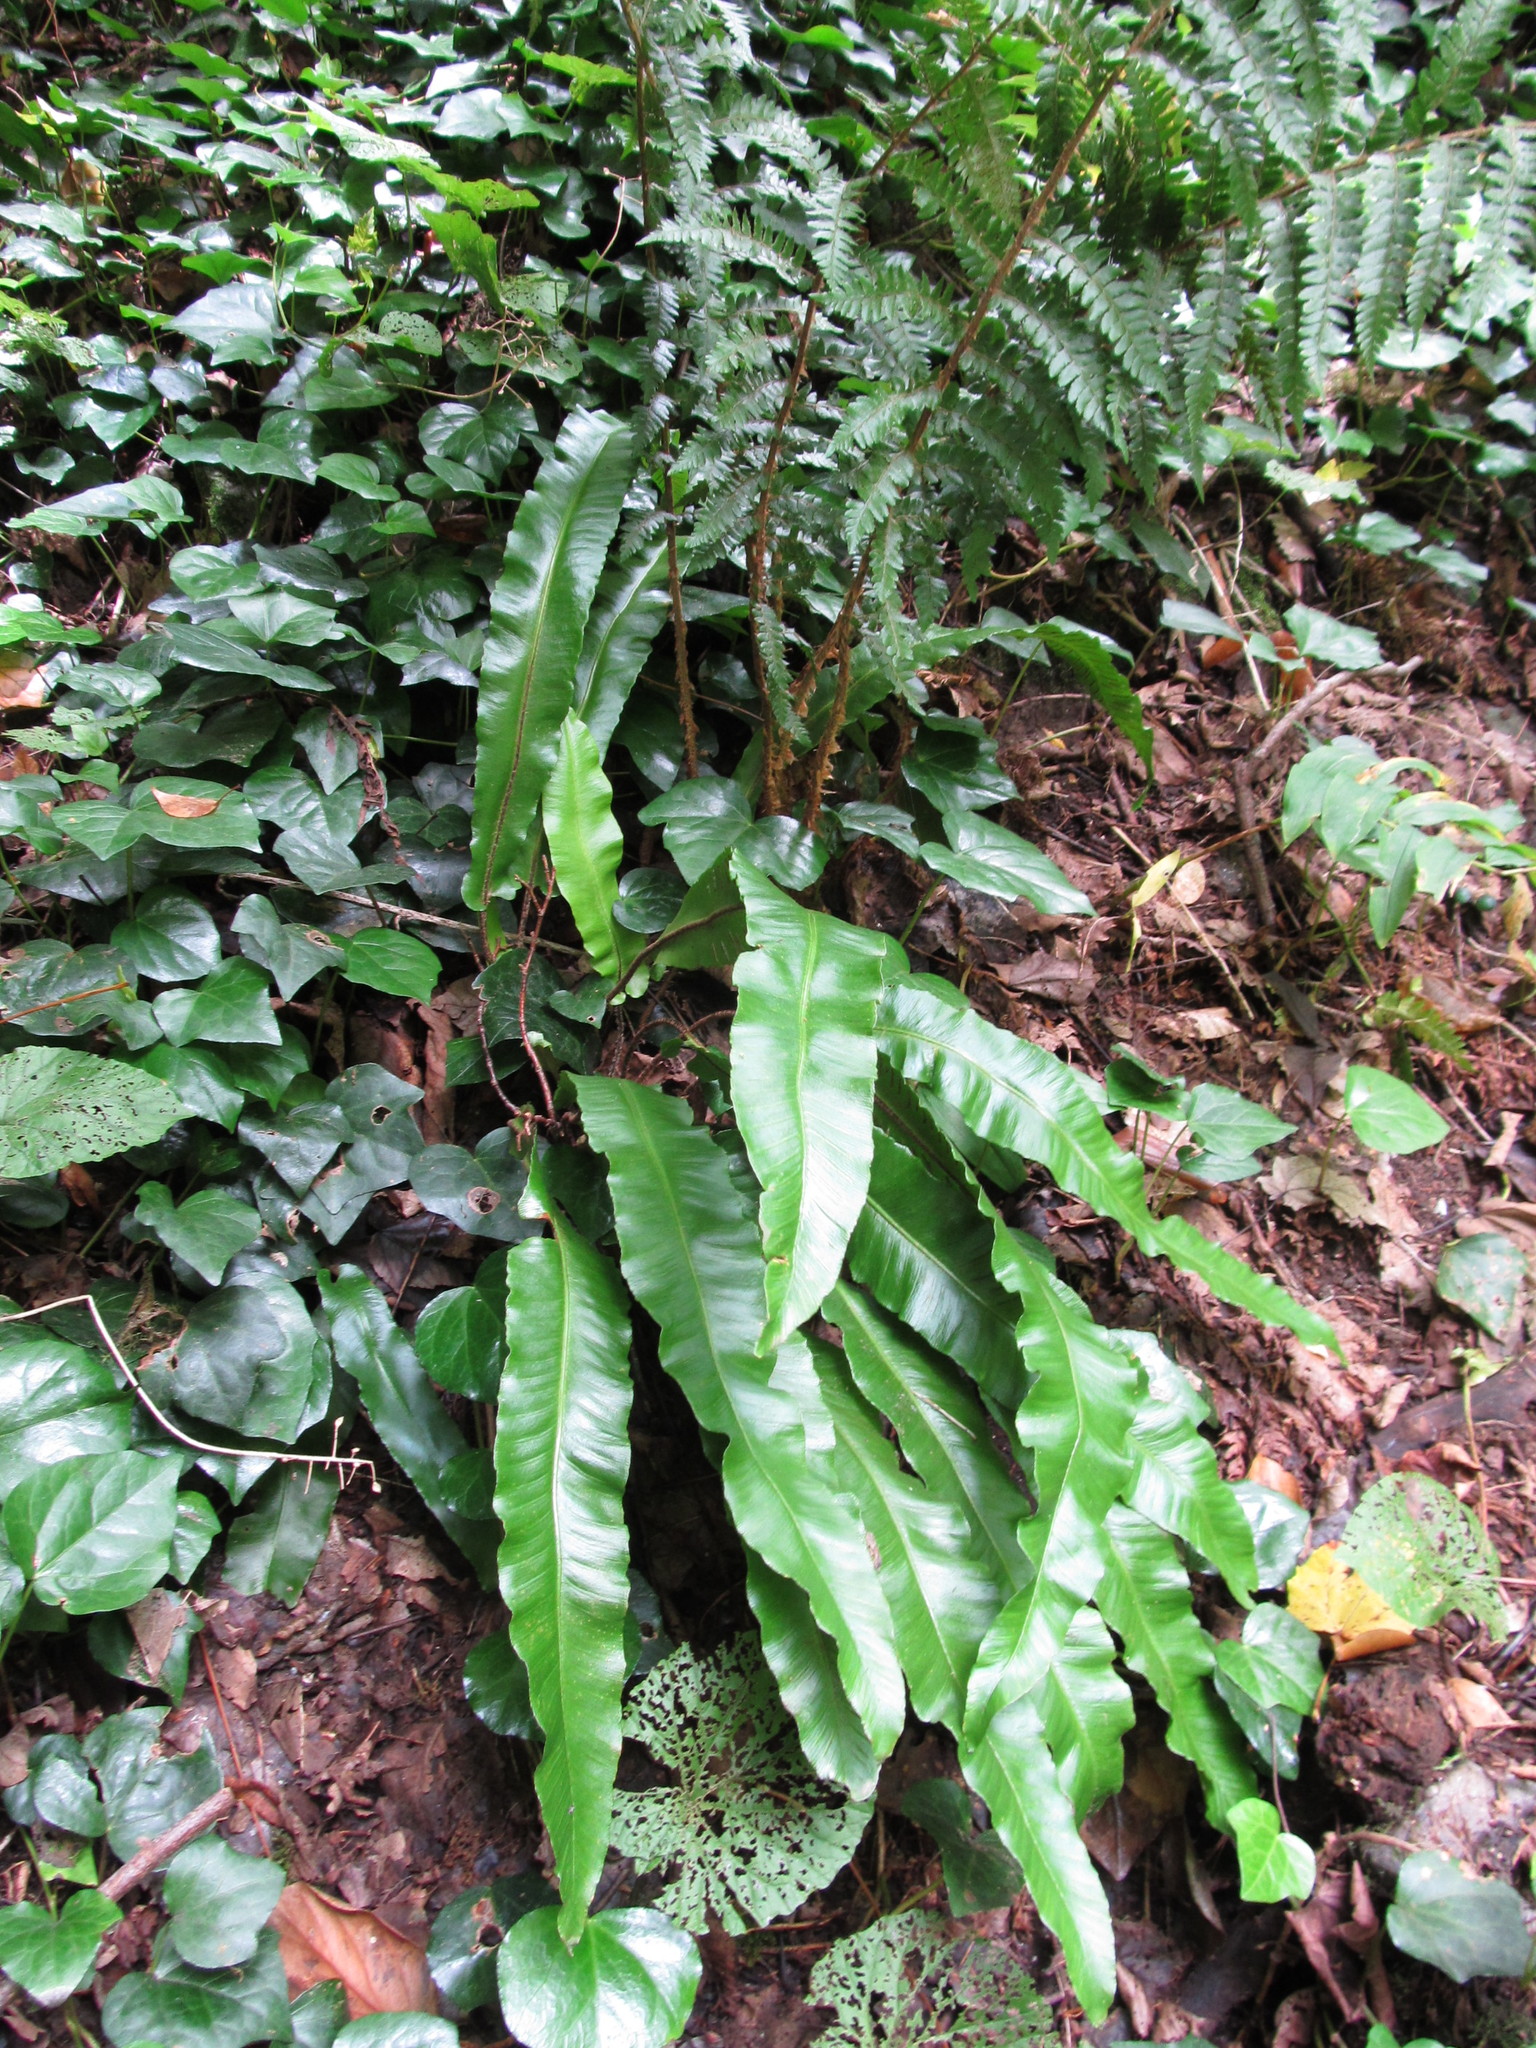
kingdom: Plantae
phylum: Tracheophyta
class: Polypodiopsida
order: Polypodiales
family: Aspleniaceae
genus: Asplenium
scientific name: Asplenium scolopendrium
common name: Hart's-tongue fern
